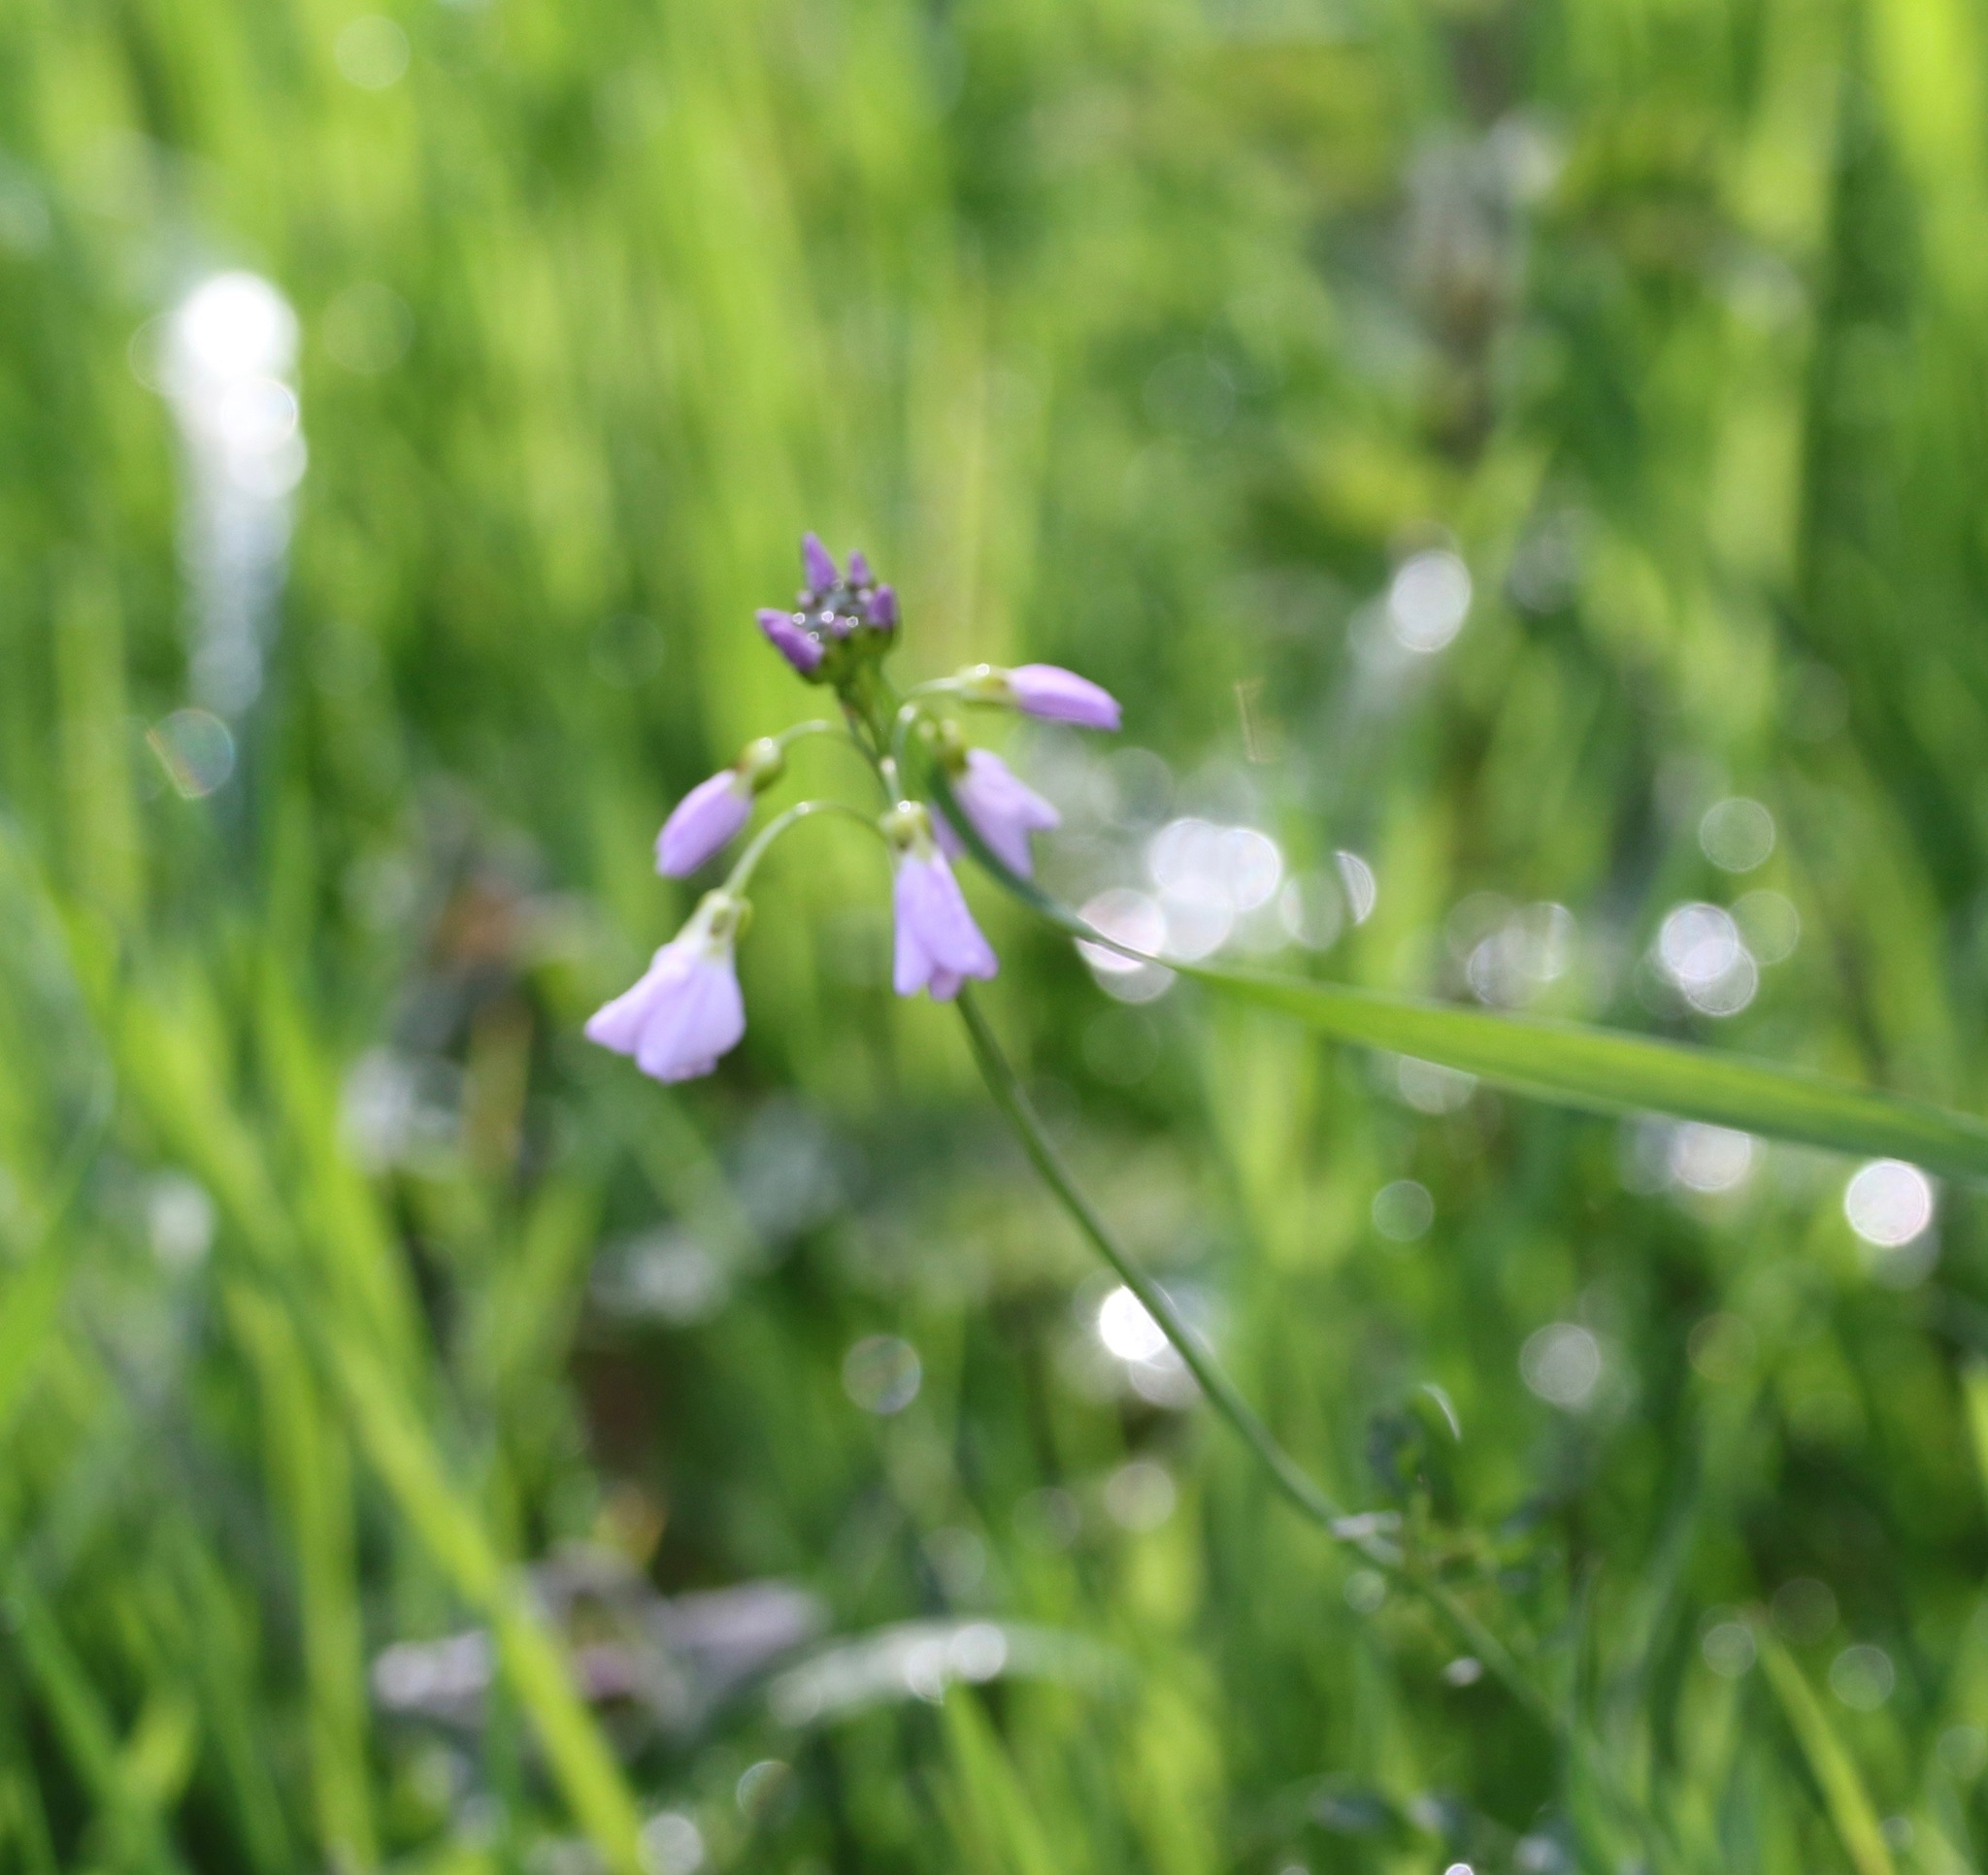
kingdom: Plantae
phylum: Tracheophyta
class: Magnoliopsida
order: Brassicales
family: Brassicaceae
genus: Cardamine
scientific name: Cardamine pratensis
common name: Cuckoo flower
